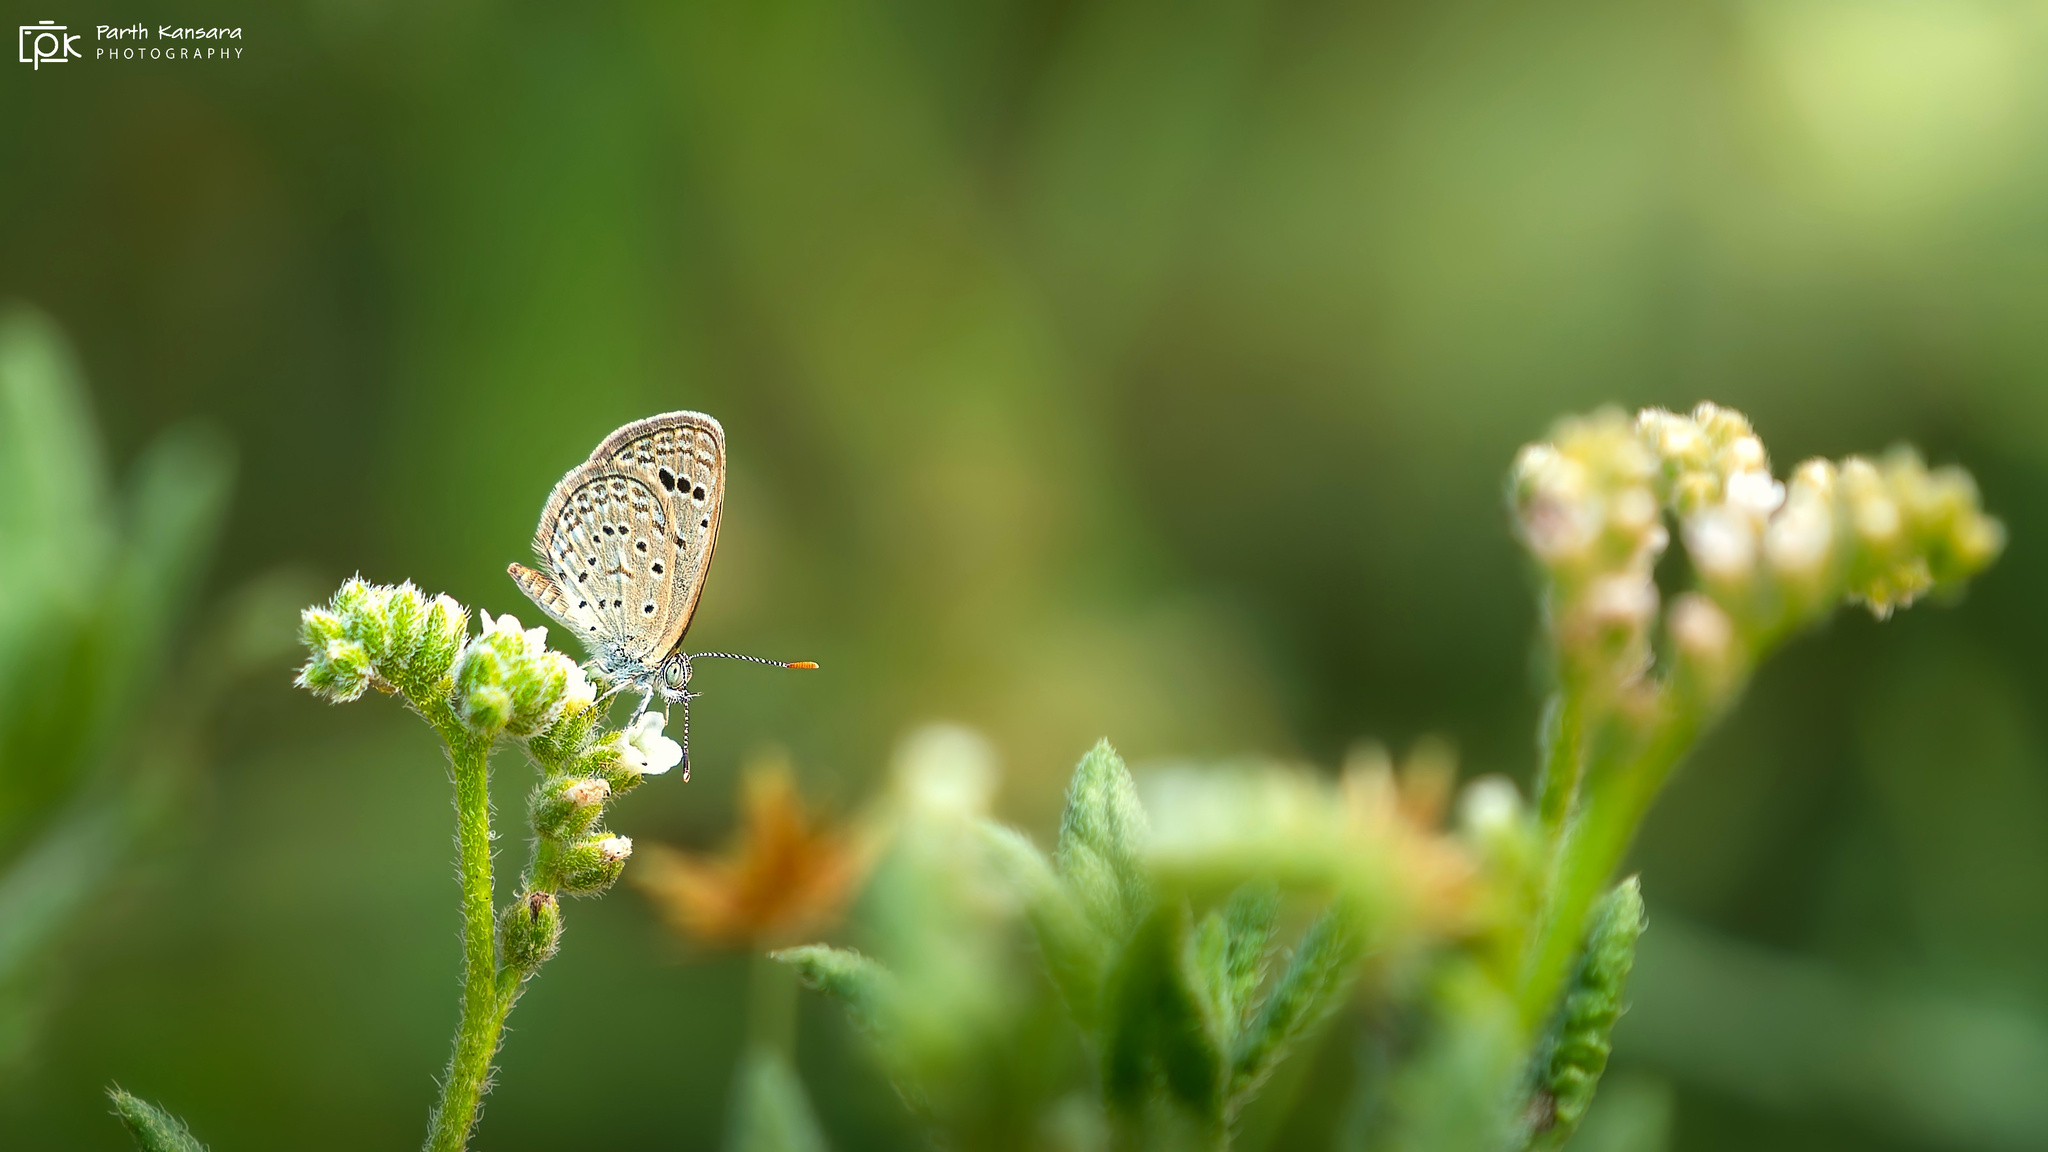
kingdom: Animalia
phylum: Arthropoda
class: Insecta
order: Lepidoptera
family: Lycaenidae
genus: Zizeeria
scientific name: Zizeeria karsandra
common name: Dark grass blue
